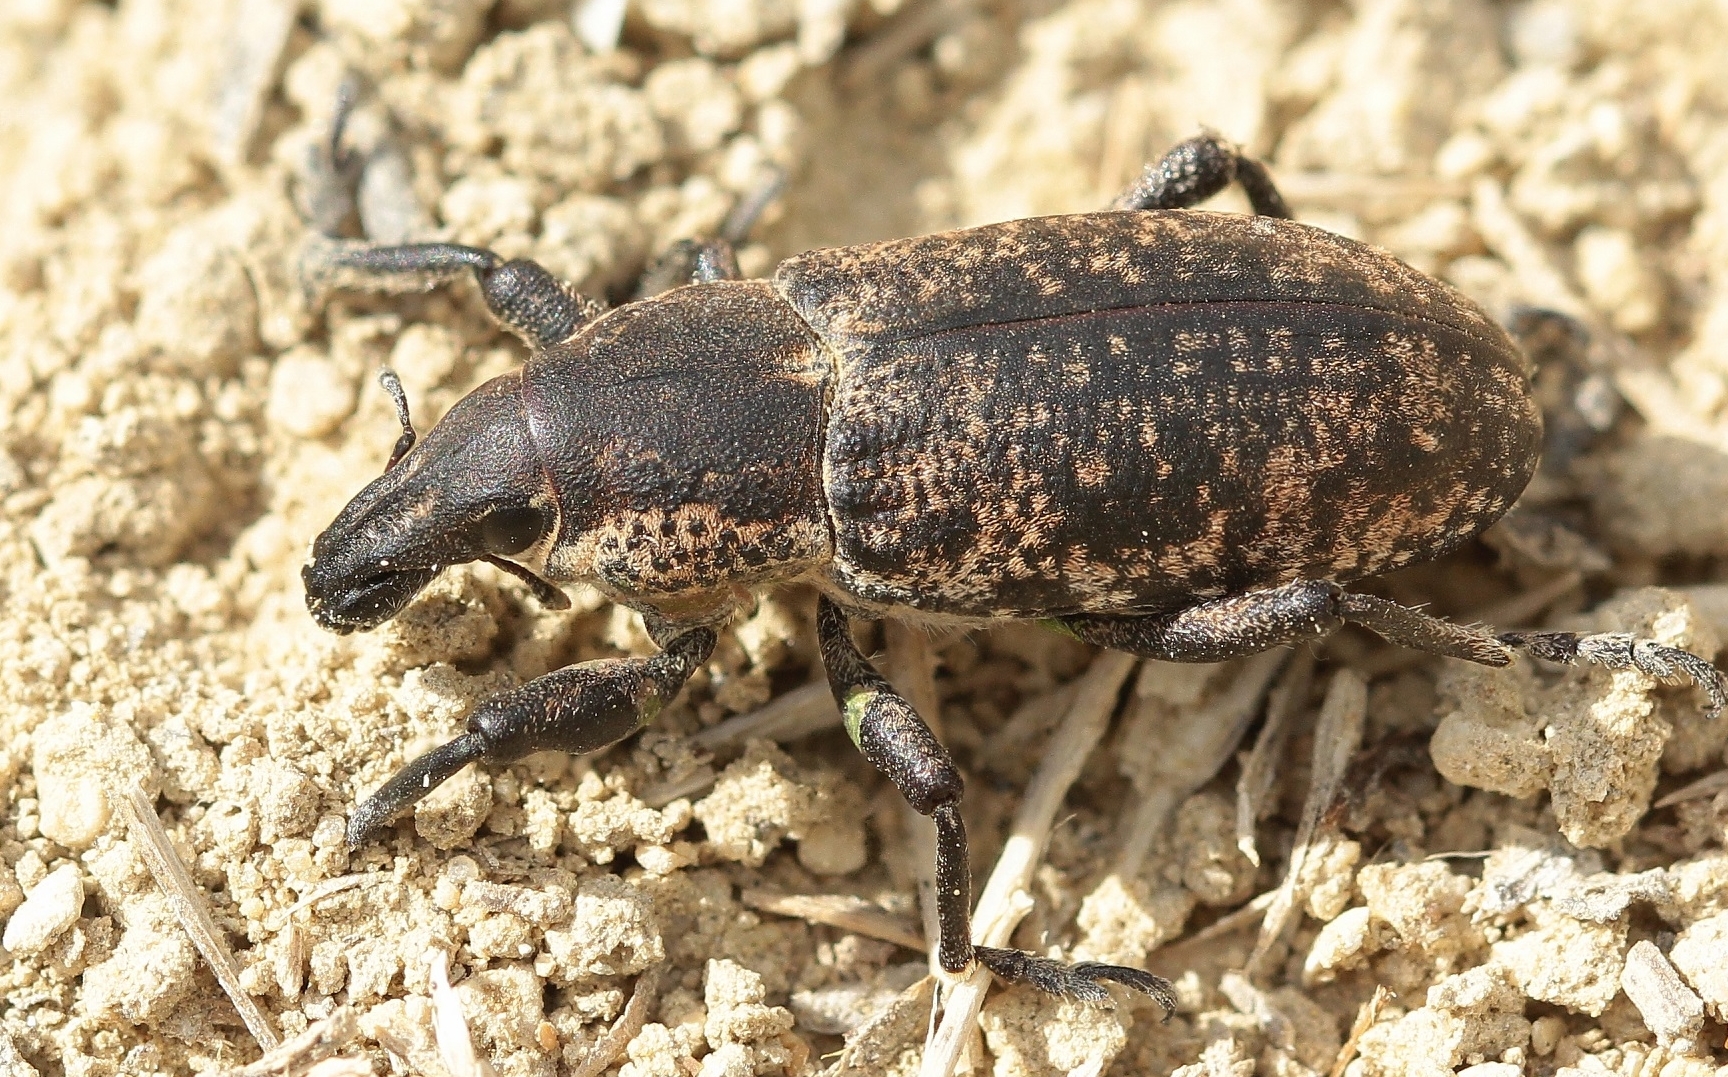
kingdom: Animalia
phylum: Arthropoda
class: Insecta
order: Coleoptera
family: Curculionidae
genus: Maximus
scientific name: Maximus strabus
